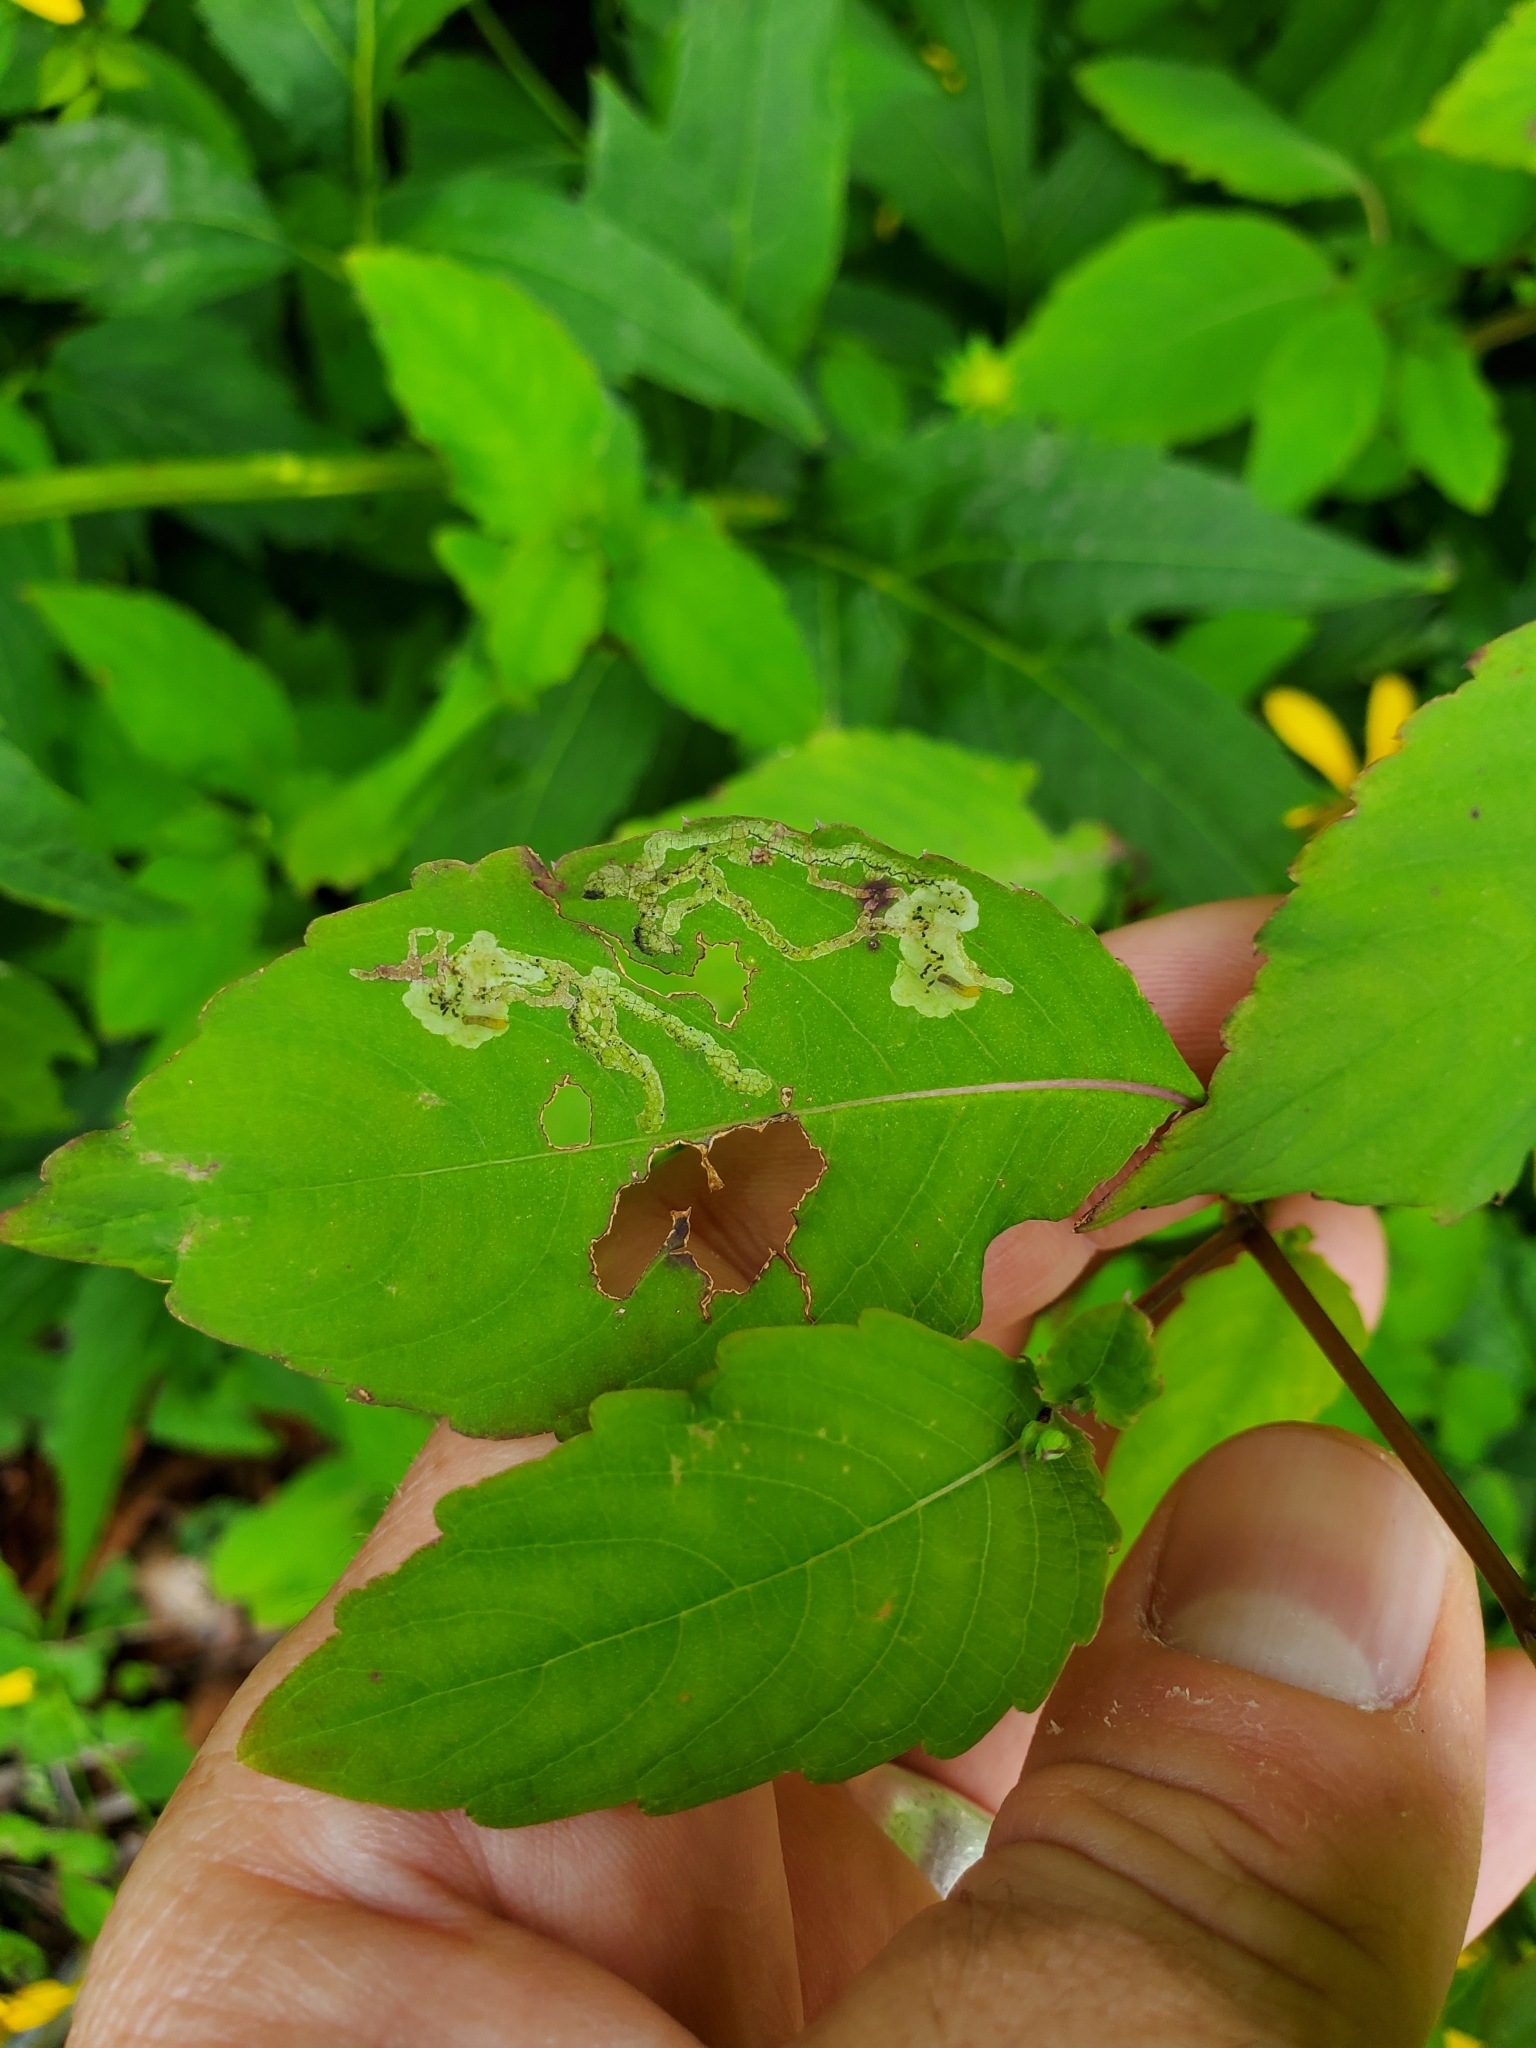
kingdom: Animalia
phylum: Arthropoda
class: Insecta
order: Diptera
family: Agromyzidae
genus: Phytoliriomyza
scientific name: Phytoliriomyza melampyga
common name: Jewelweed leaf-miner fly
